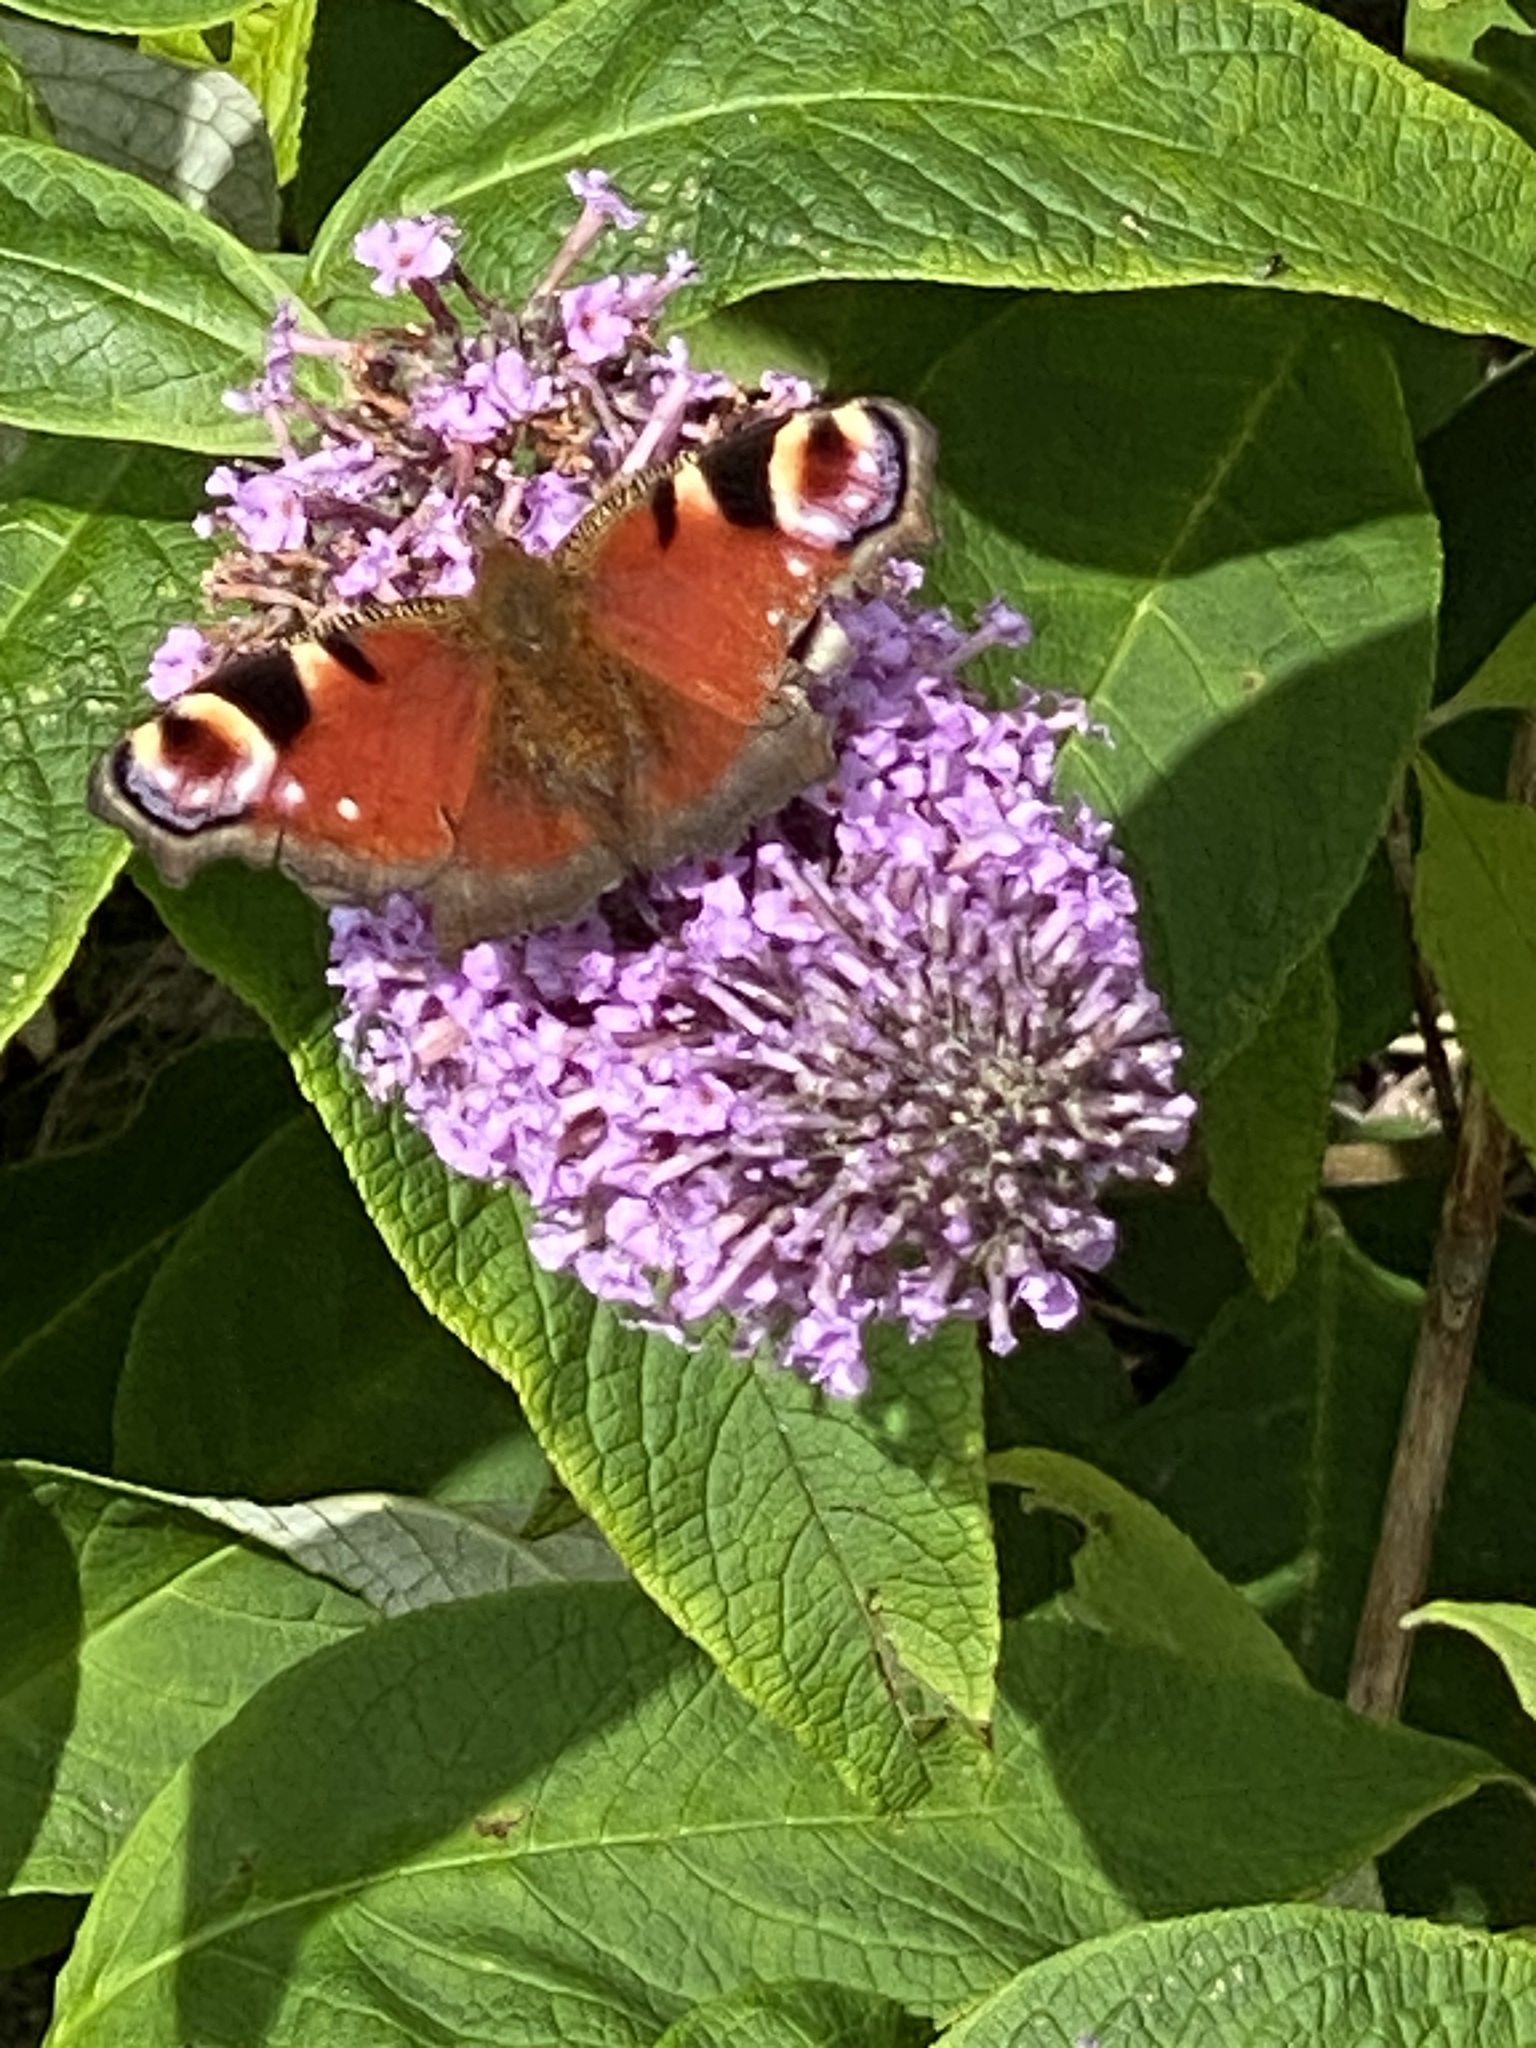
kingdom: Animalia
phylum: Arthropoda
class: Insecta
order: Lepidoptera
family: Nymphalidae
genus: Aglais
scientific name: Aglais io
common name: Peacock
